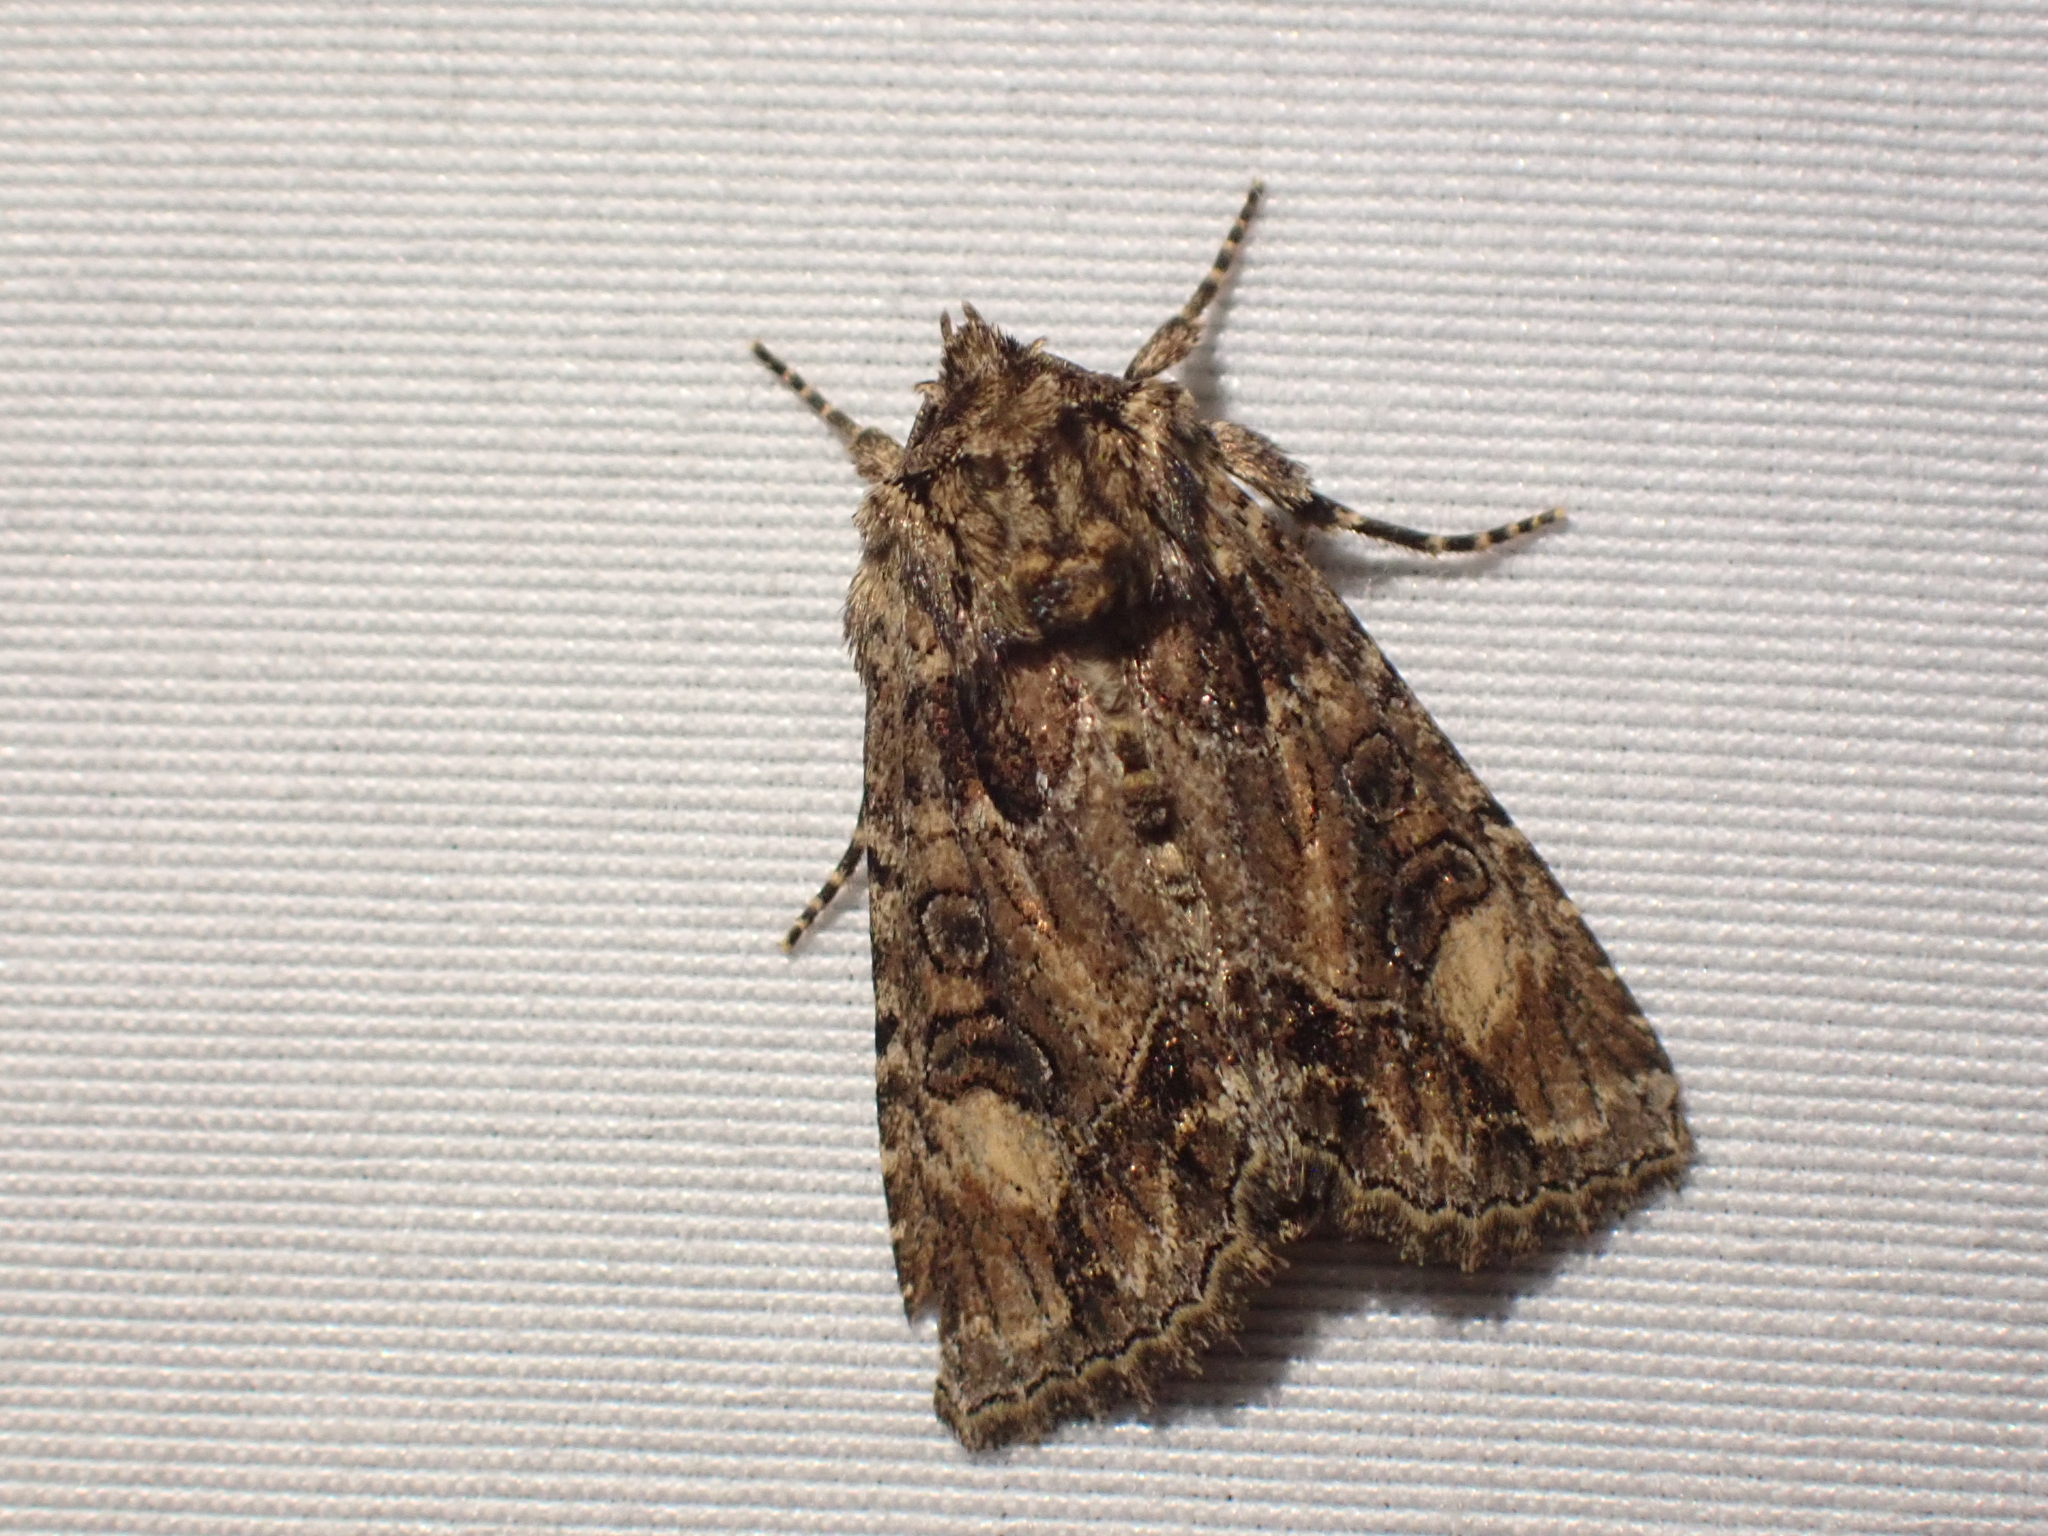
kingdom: Animalia
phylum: Arthropoda
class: Insecta
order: Lepidoptera
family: Noctuidae
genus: Aseptis
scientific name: Aseptis adnixa
